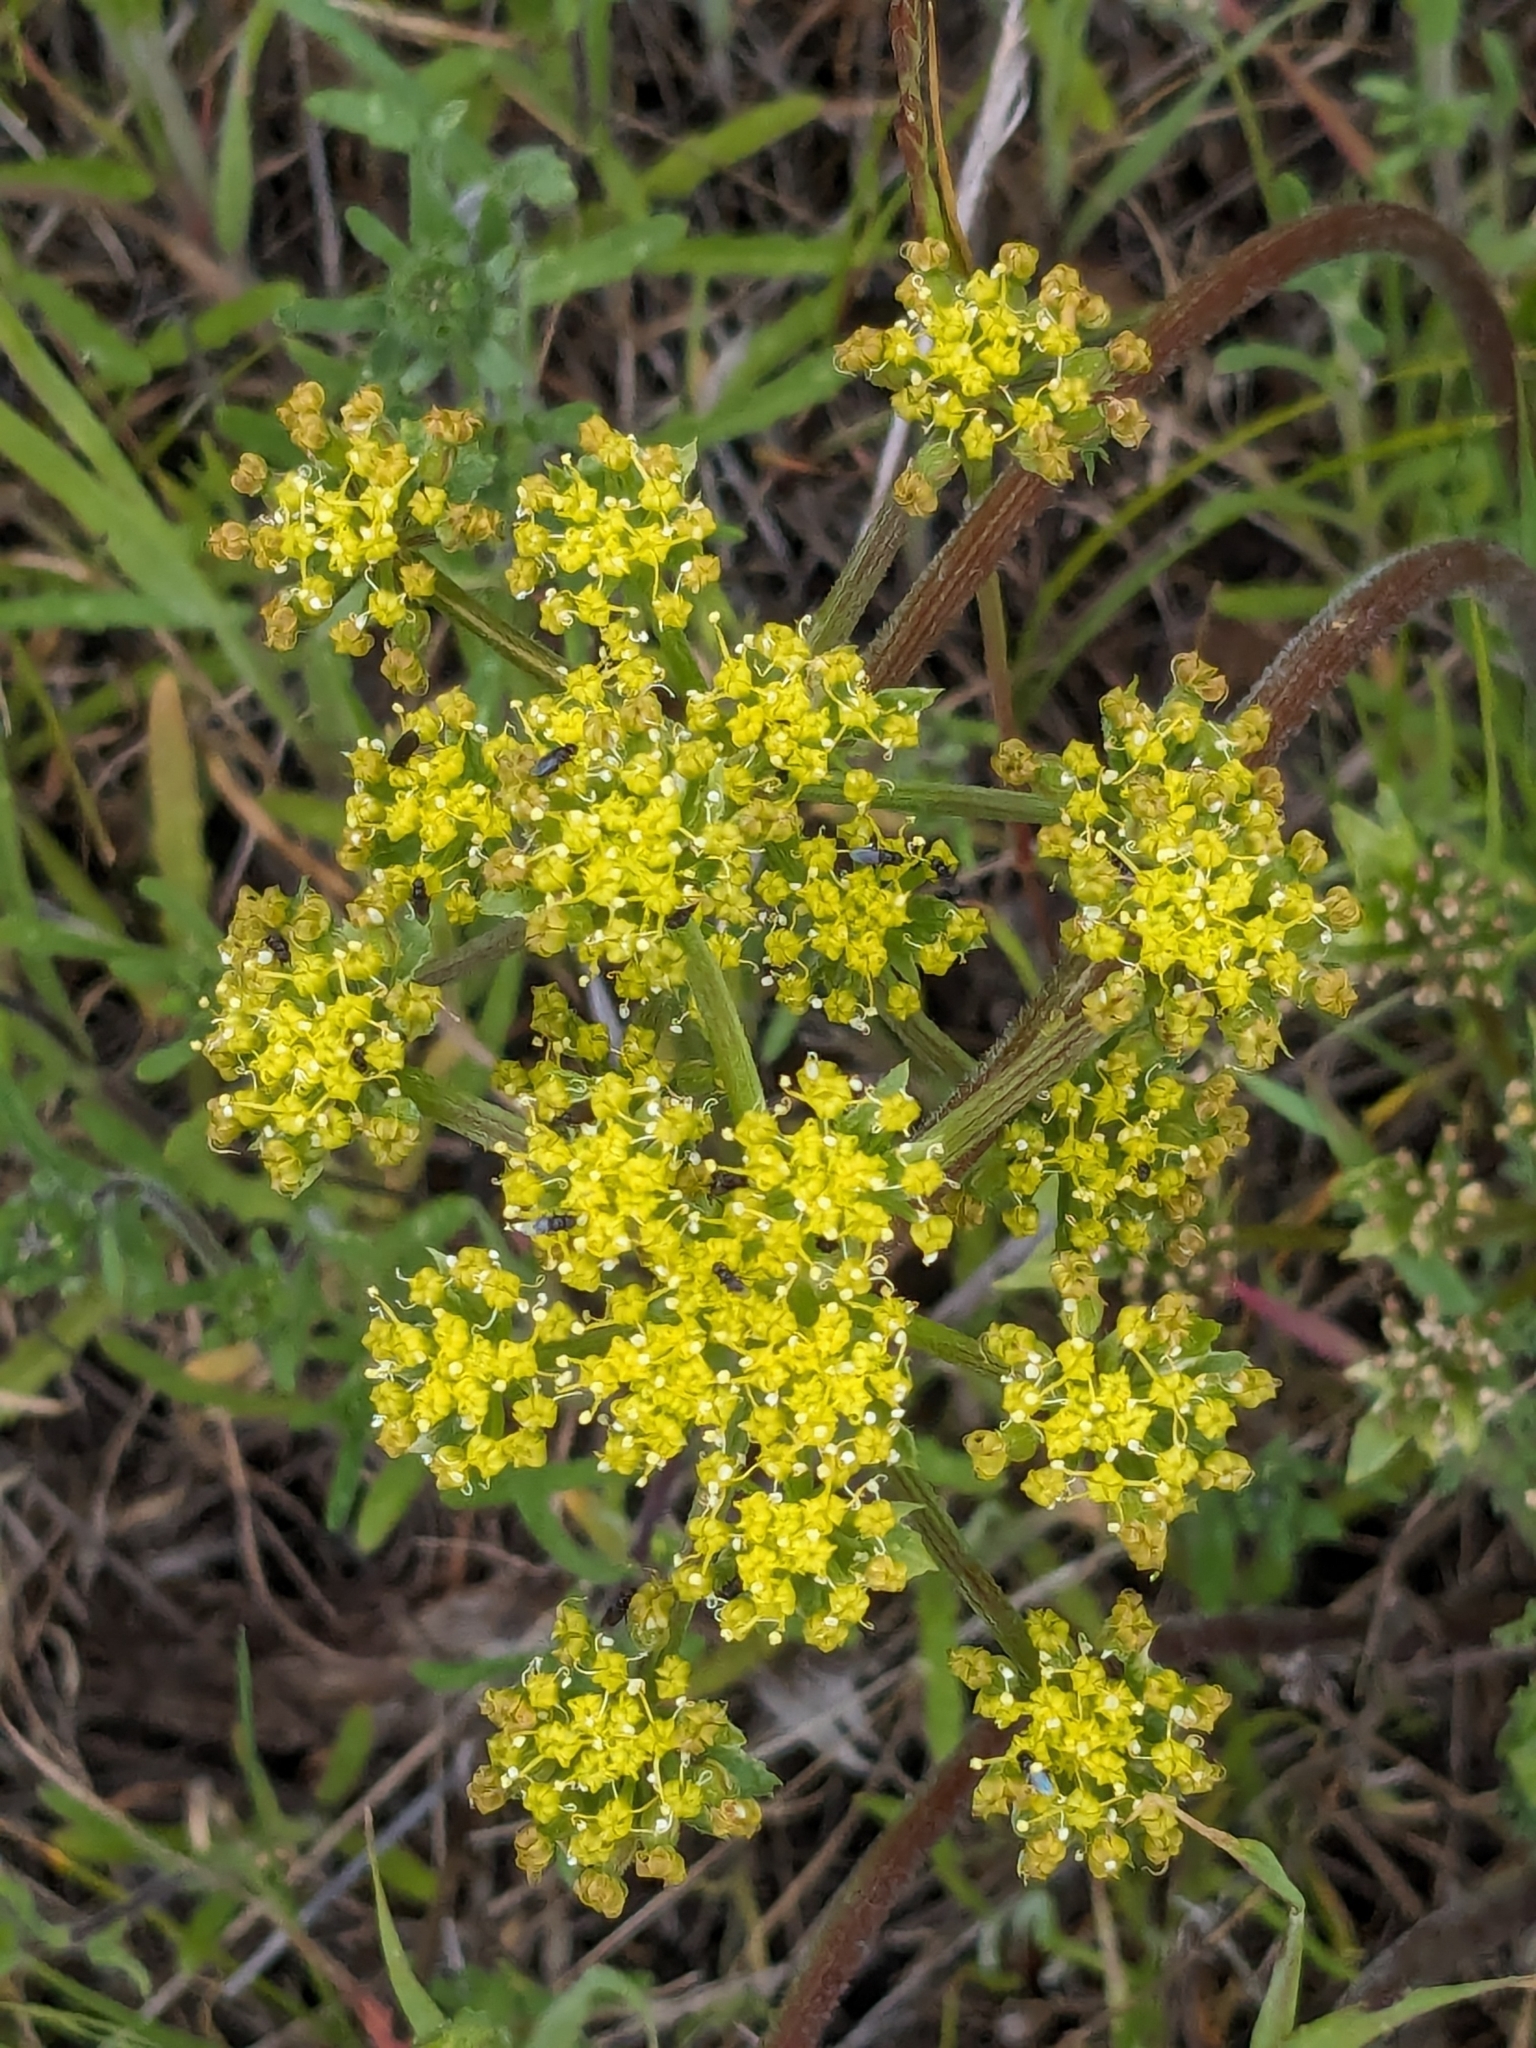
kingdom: Plantae
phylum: Tracheophyta
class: Magnoliopsida
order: Apiales
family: Apiaceae
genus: Lomatium
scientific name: Lomatium dasycarpum
